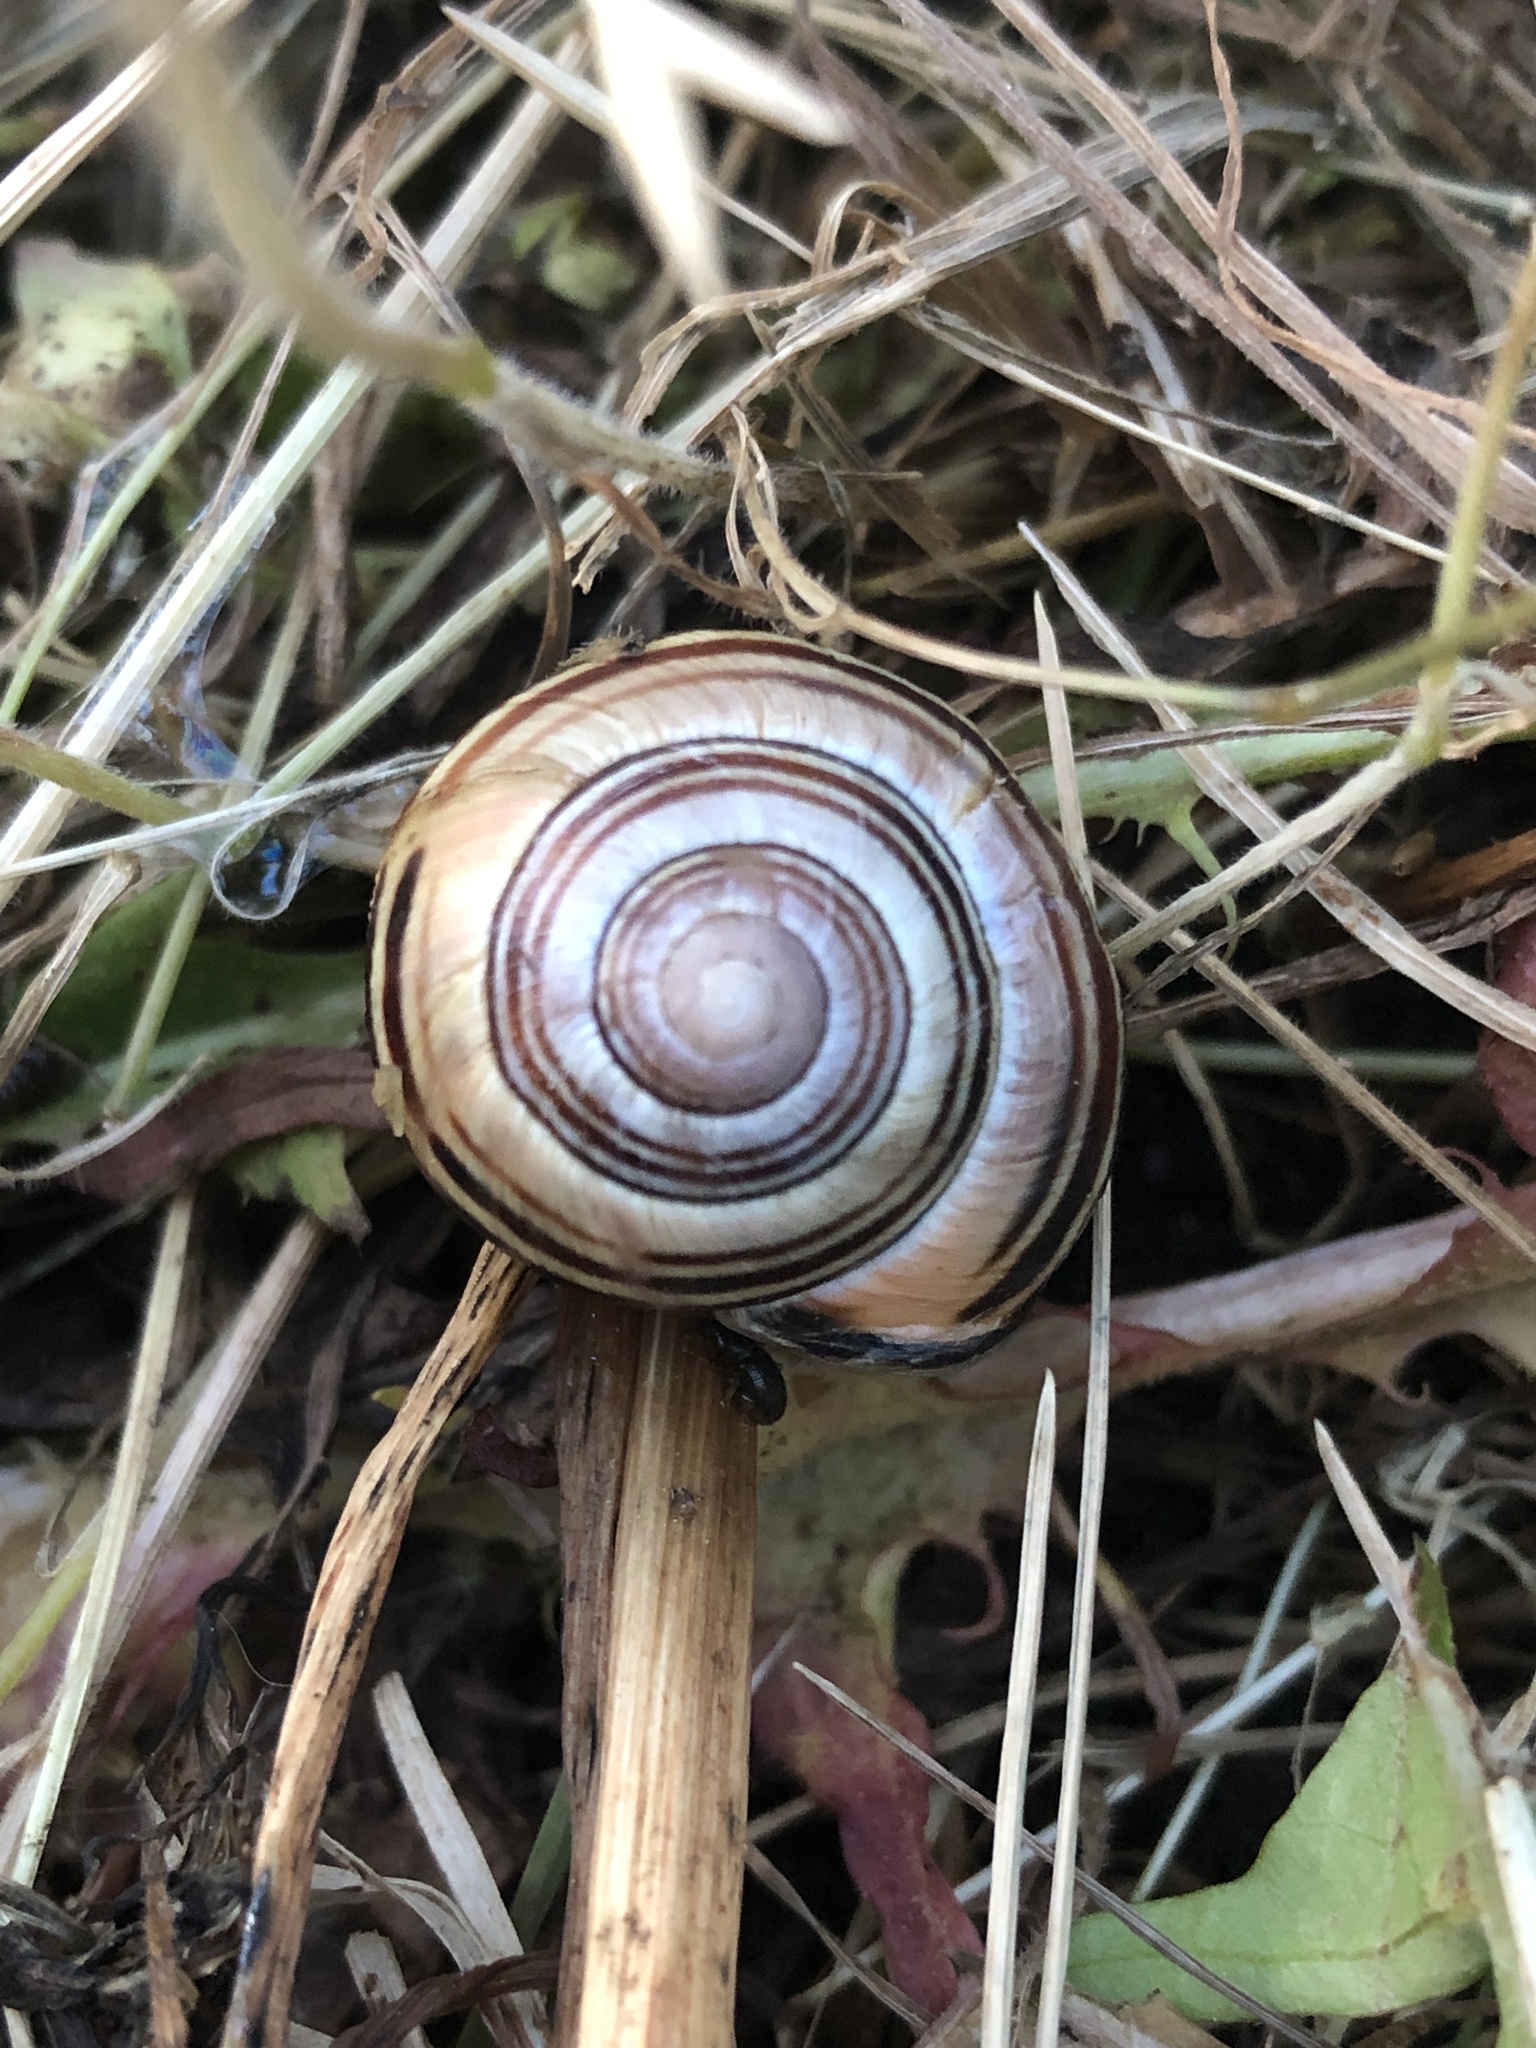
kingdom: Animalia
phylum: Mollusca
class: Gastropoda
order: Stylommatophora
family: Helicidae
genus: Cepaea
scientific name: Cepaea nemoralis
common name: Grovesnail
